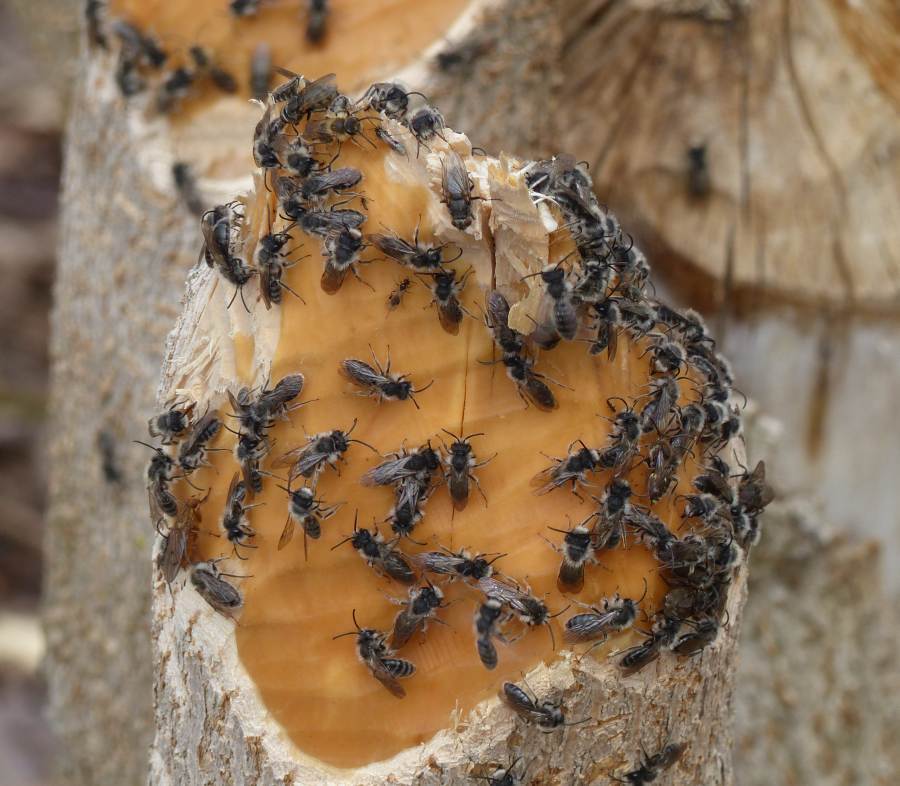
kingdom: Animalia
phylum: Arthropoda
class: Insecta
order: Hymenoptera
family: Andrenidae
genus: Andrena
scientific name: Andrena frigida
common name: Frigid mining bee
